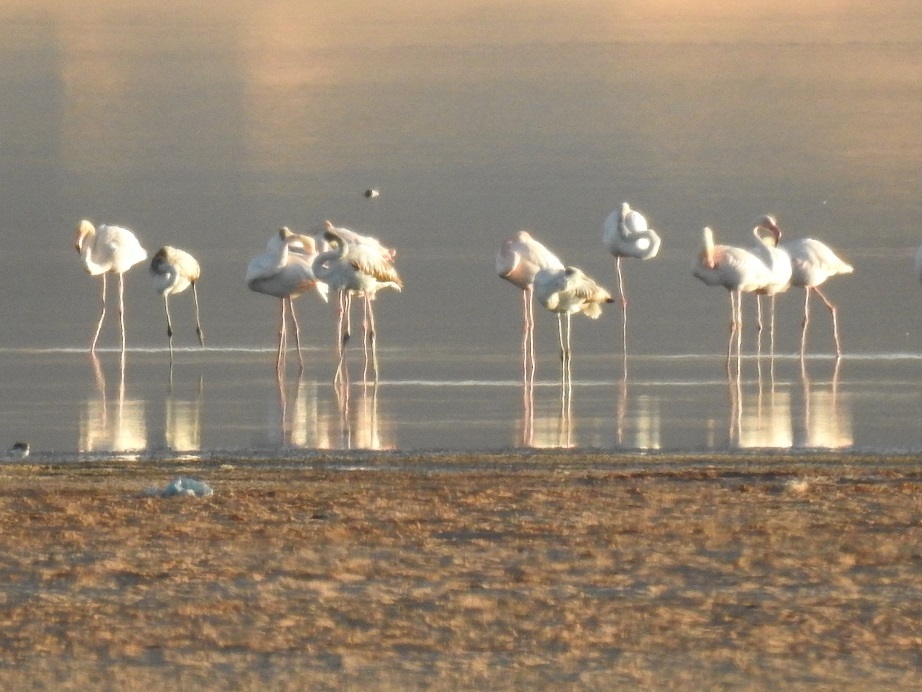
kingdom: Animalia
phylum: Chordata
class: Aves
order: Phoenicopteriformes
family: Phoenicopteridae
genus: Phoenicopterus
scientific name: Phoenicopterus roseus
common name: Greater flamingo
